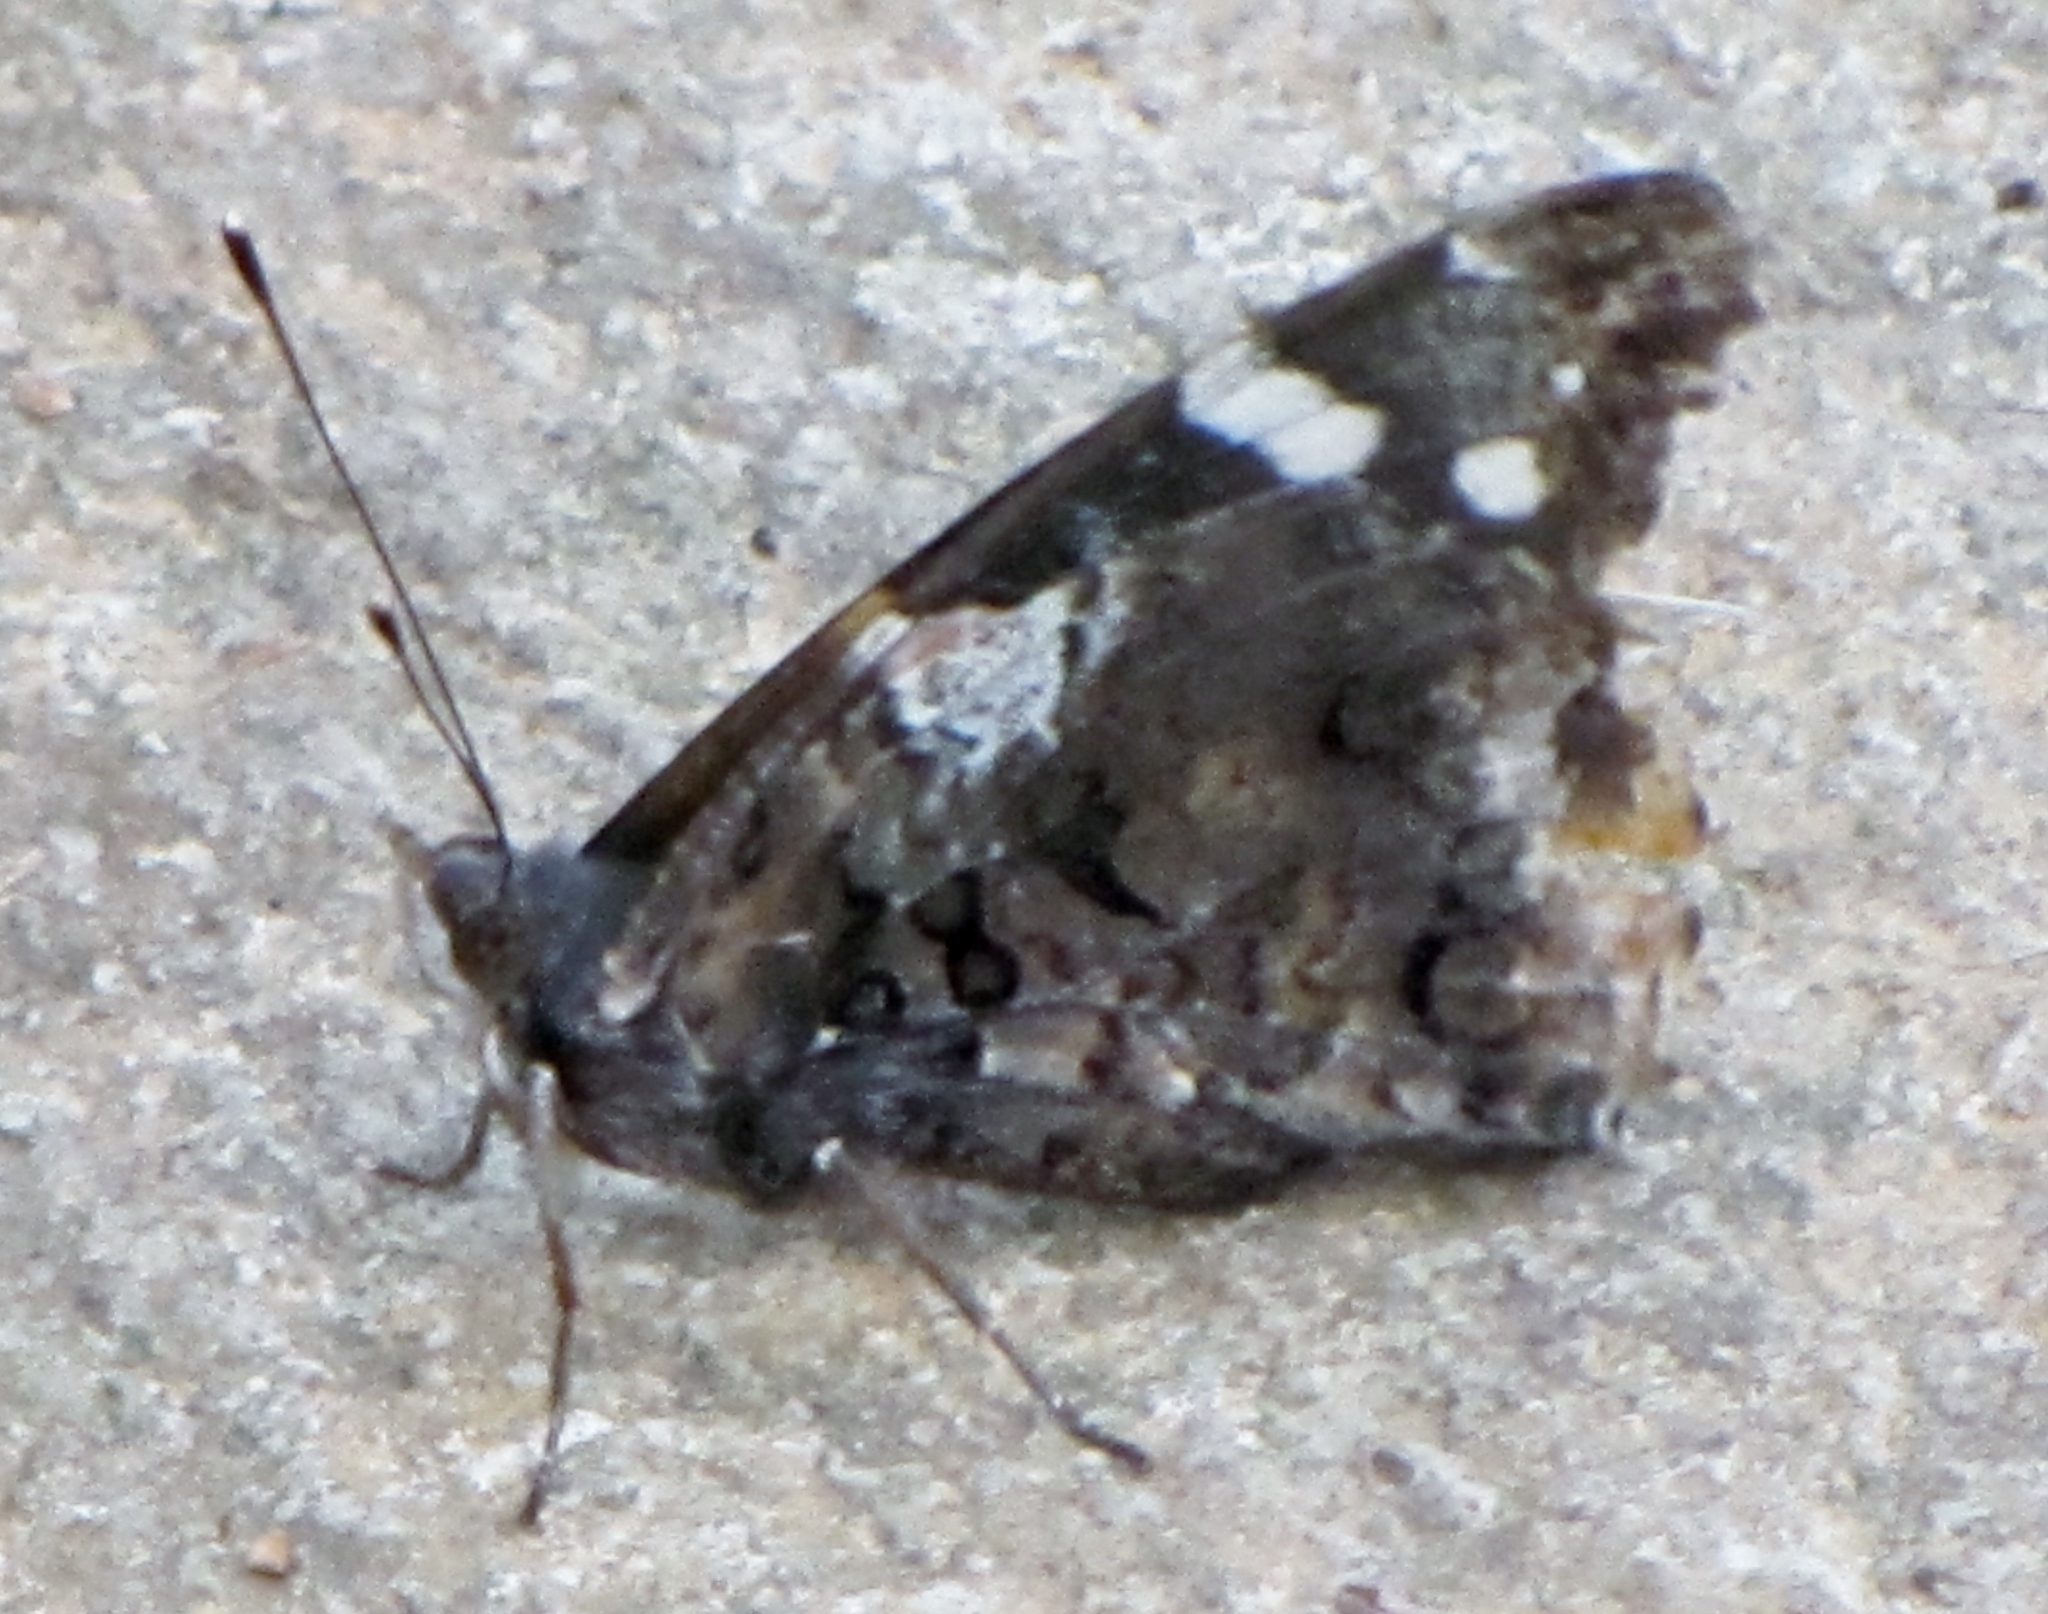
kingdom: Animalia
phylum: Arthropoda
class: Insecta
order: Lepidoptera
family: Nymphalidae
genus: Vanessa
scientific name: Vanessa atalanta
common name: Red admiral
